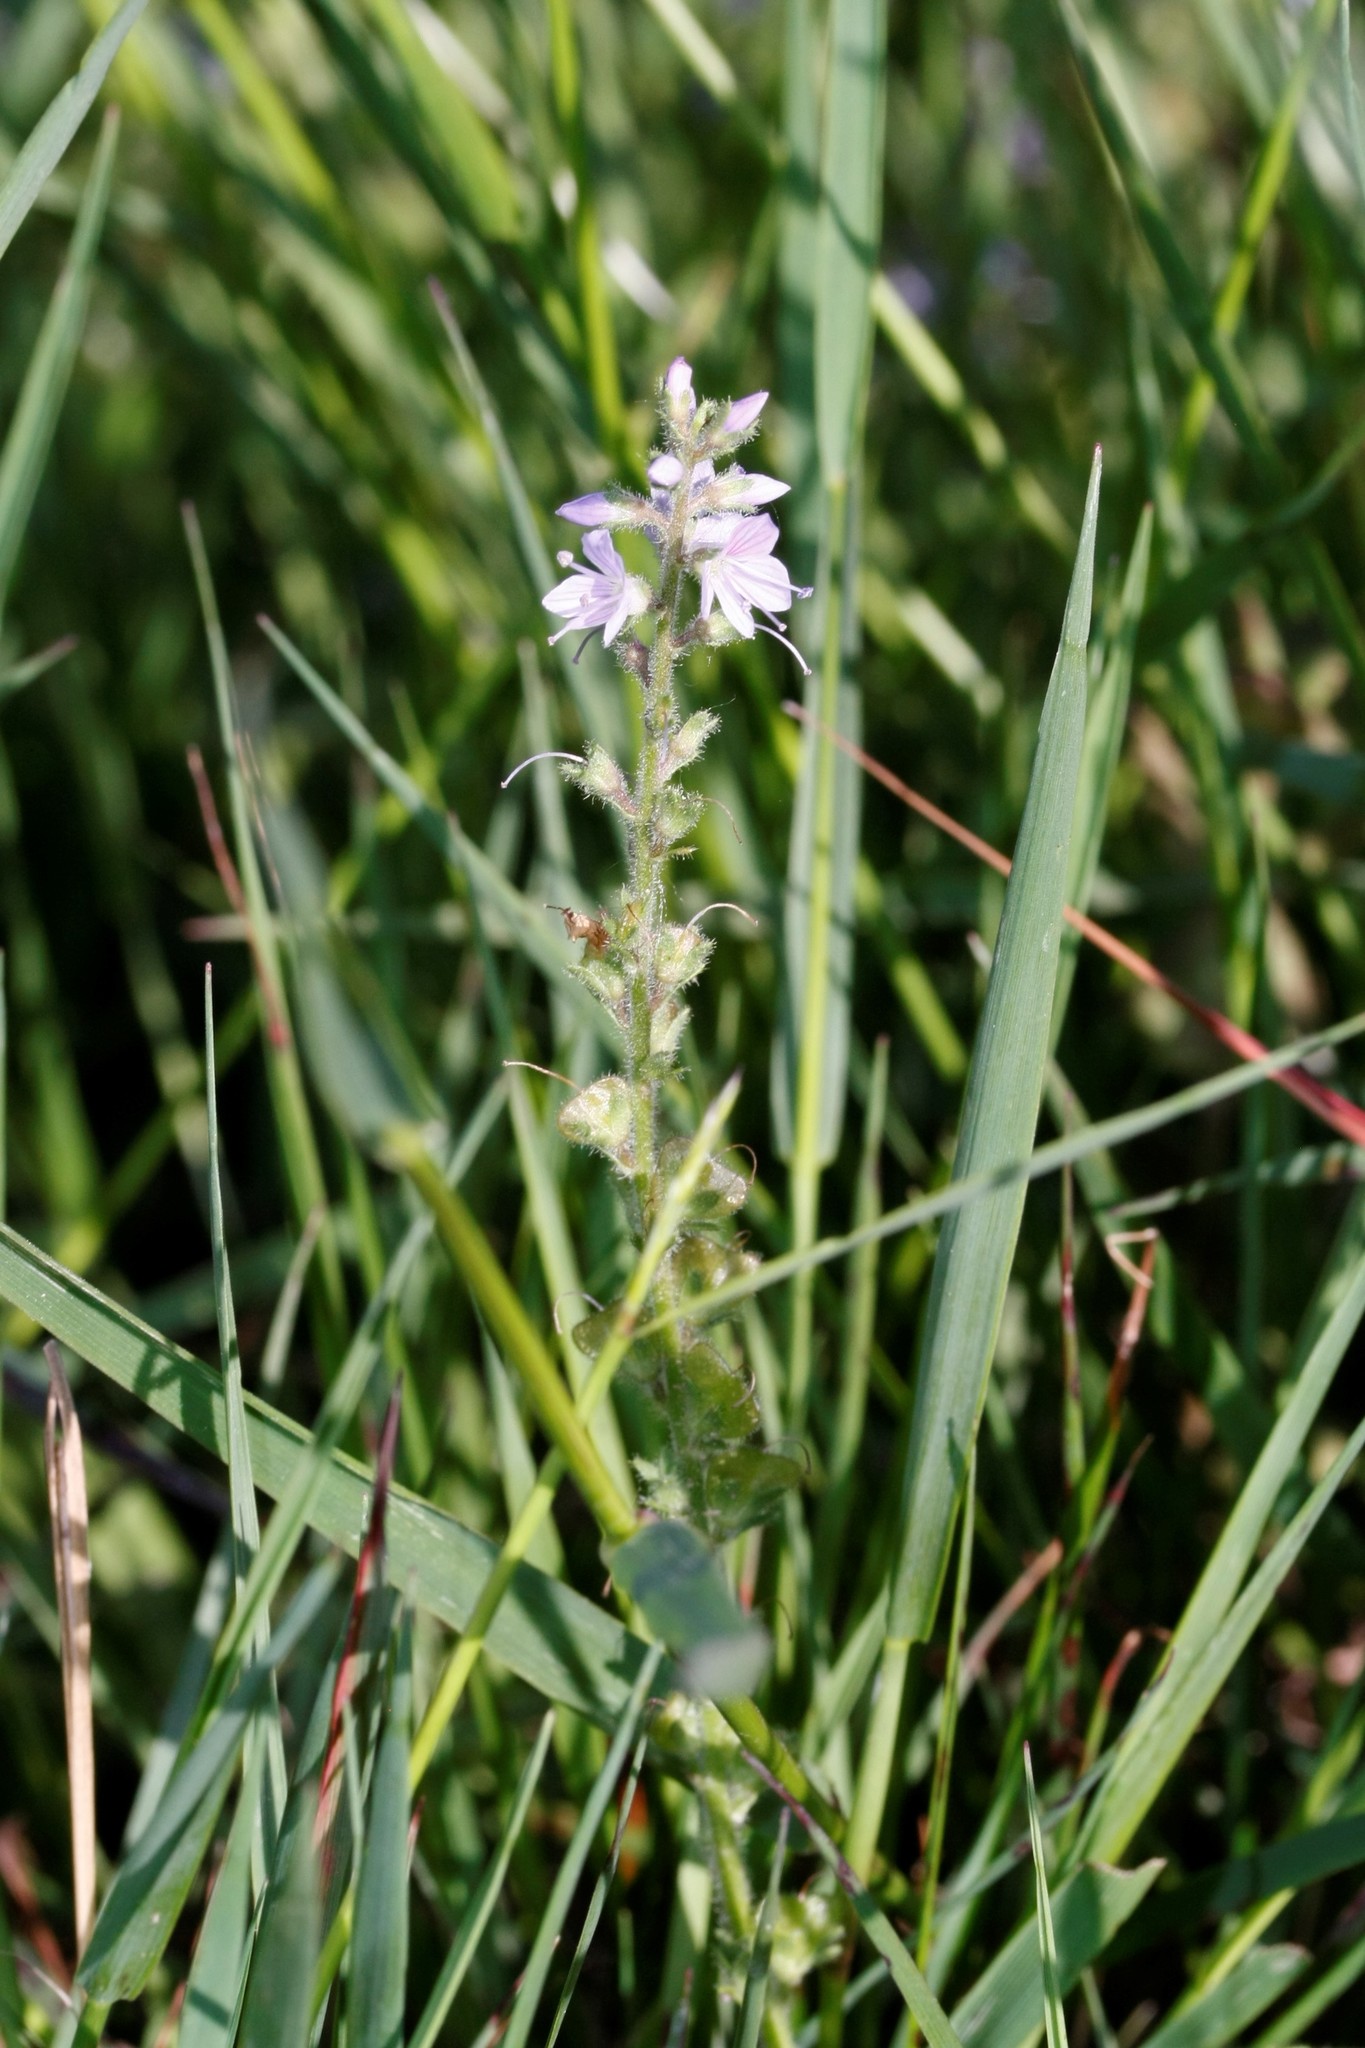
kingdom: Plantae
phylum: Tracheophyta
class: Magnoliopsida
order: Lamiales
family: Plantaginaceae
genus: Veronica
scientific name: Veronica officinalis
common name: Common speedwell
